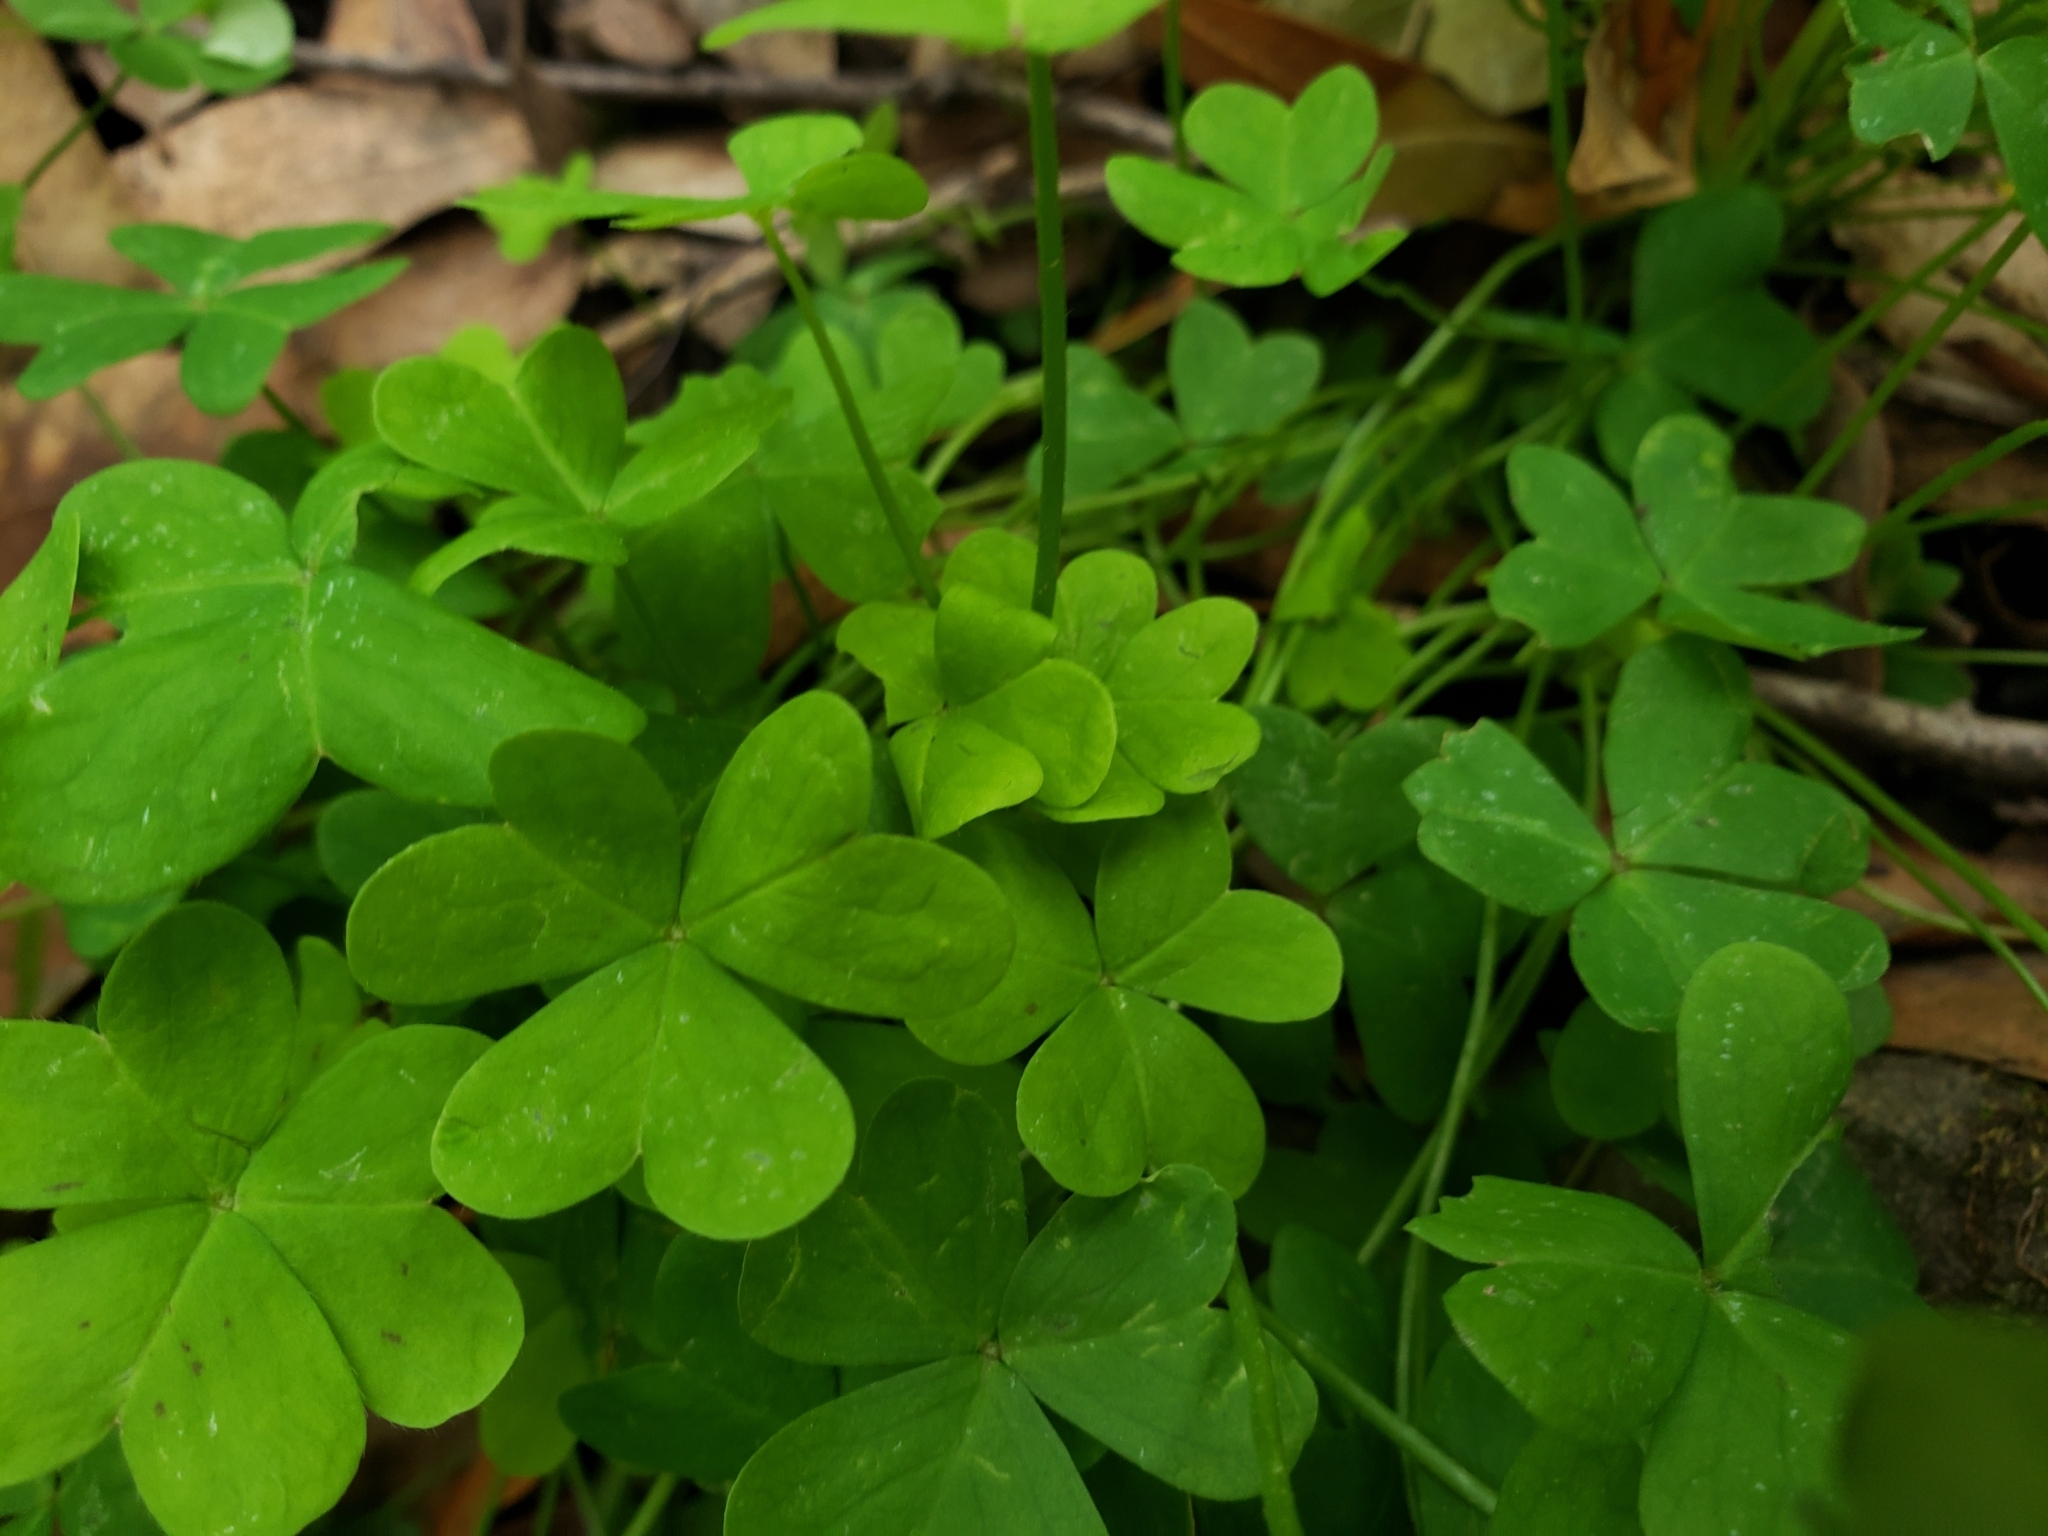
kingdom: Plantae
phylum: Tracheophyta
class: Magnoliopsida
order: Oxalidales
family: Oxalidaceae
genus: Oxalis
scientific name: Oxalis pes-caprae
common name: Bermuda-buttercup
